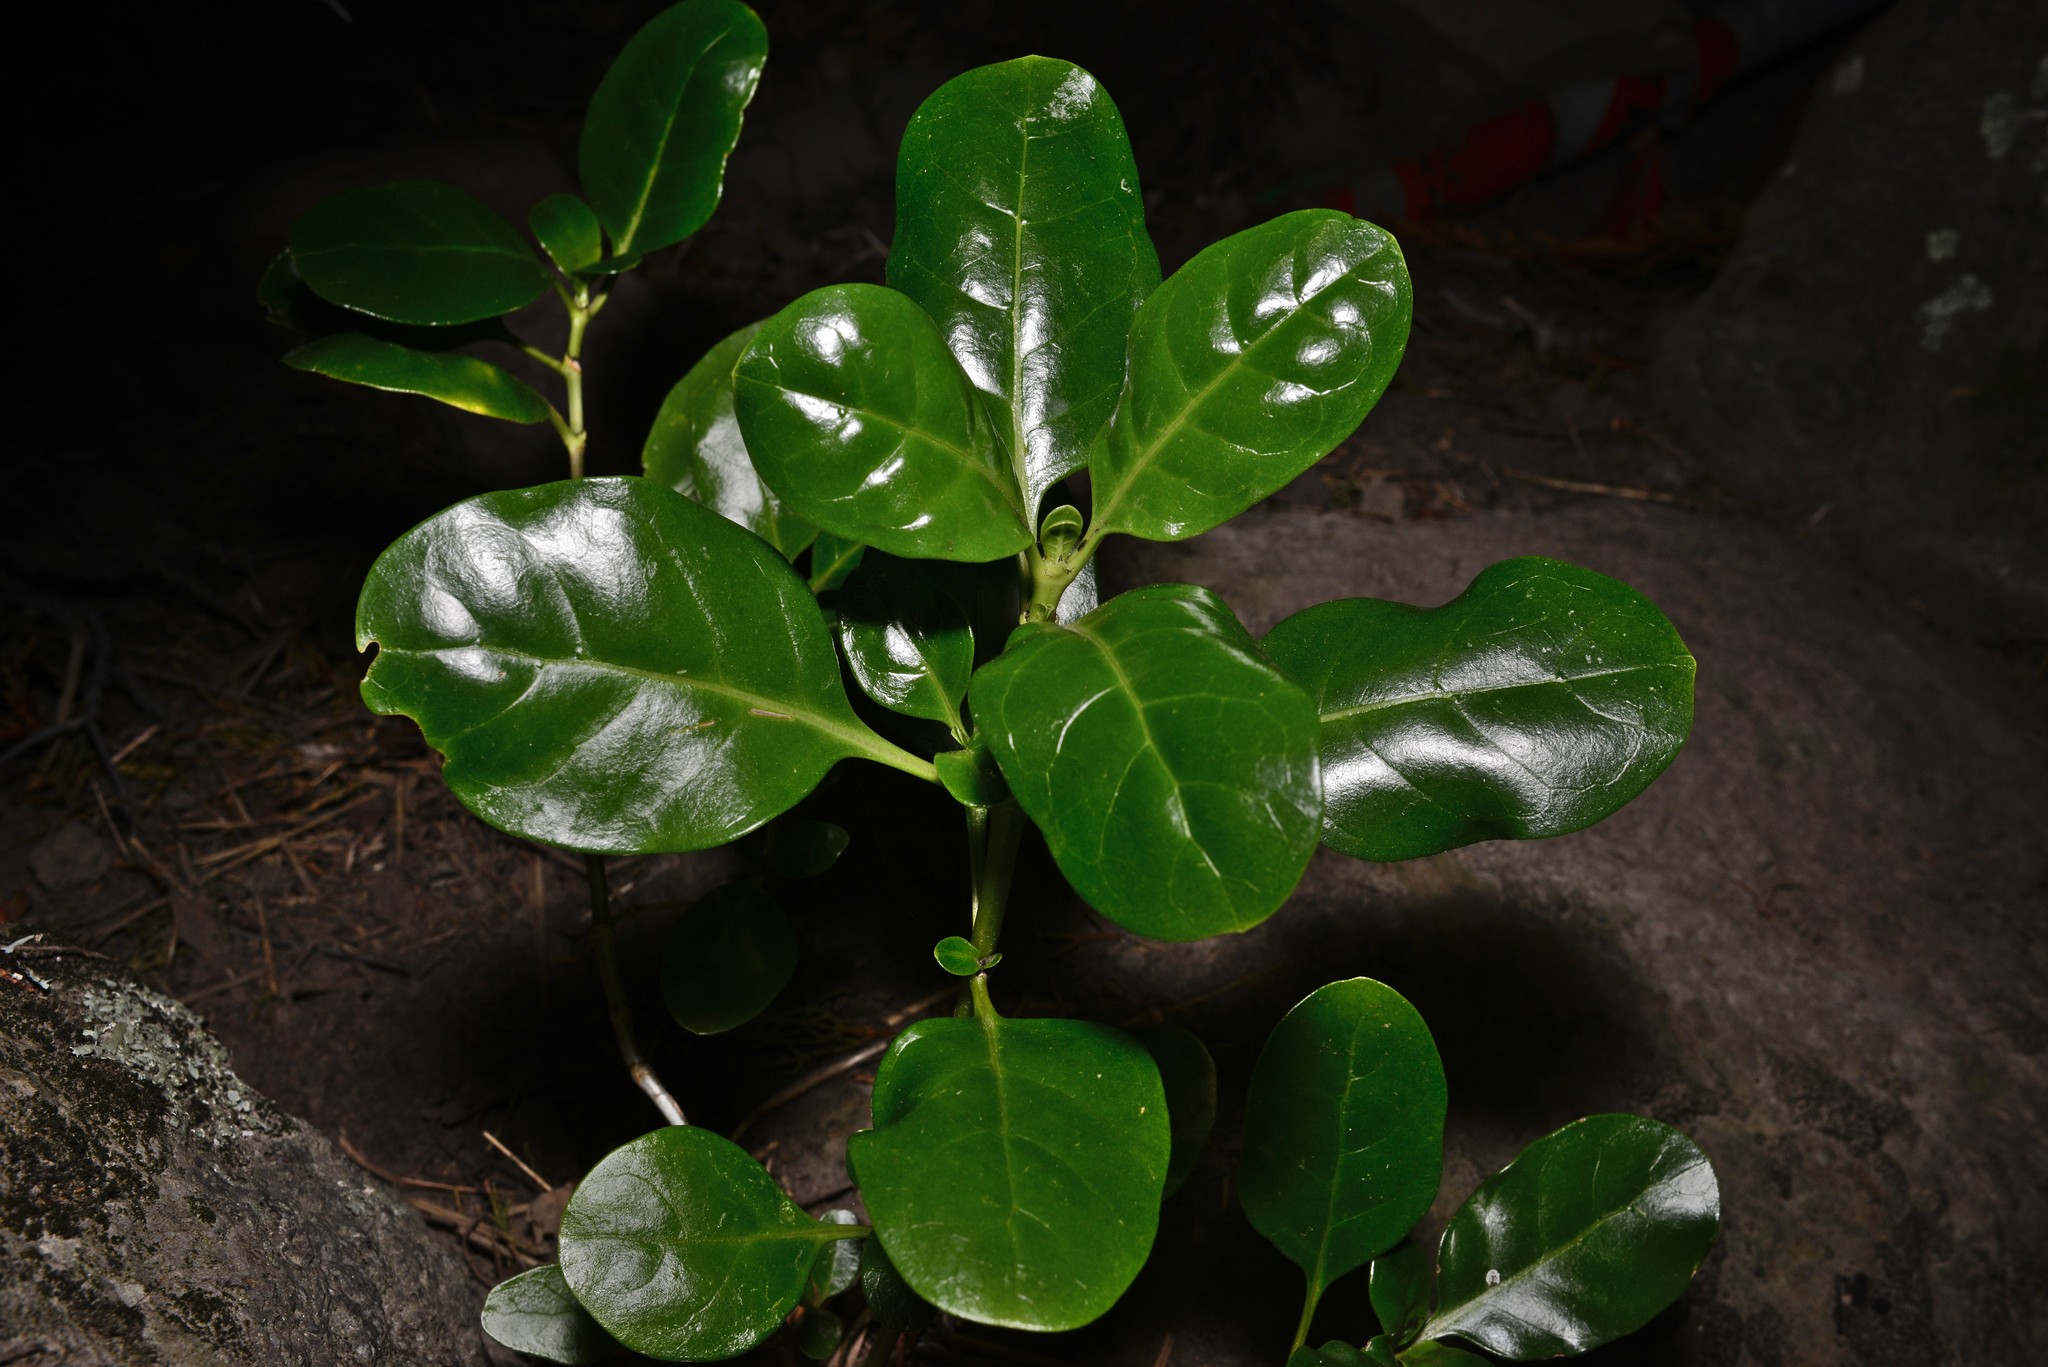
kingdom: Plantae
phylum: Tracheophyta
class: Magnoliopsida
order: Gentianales
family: Rubiaceae
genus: Coprosma
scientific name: Coprosma repens
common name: Tree bedstraw
